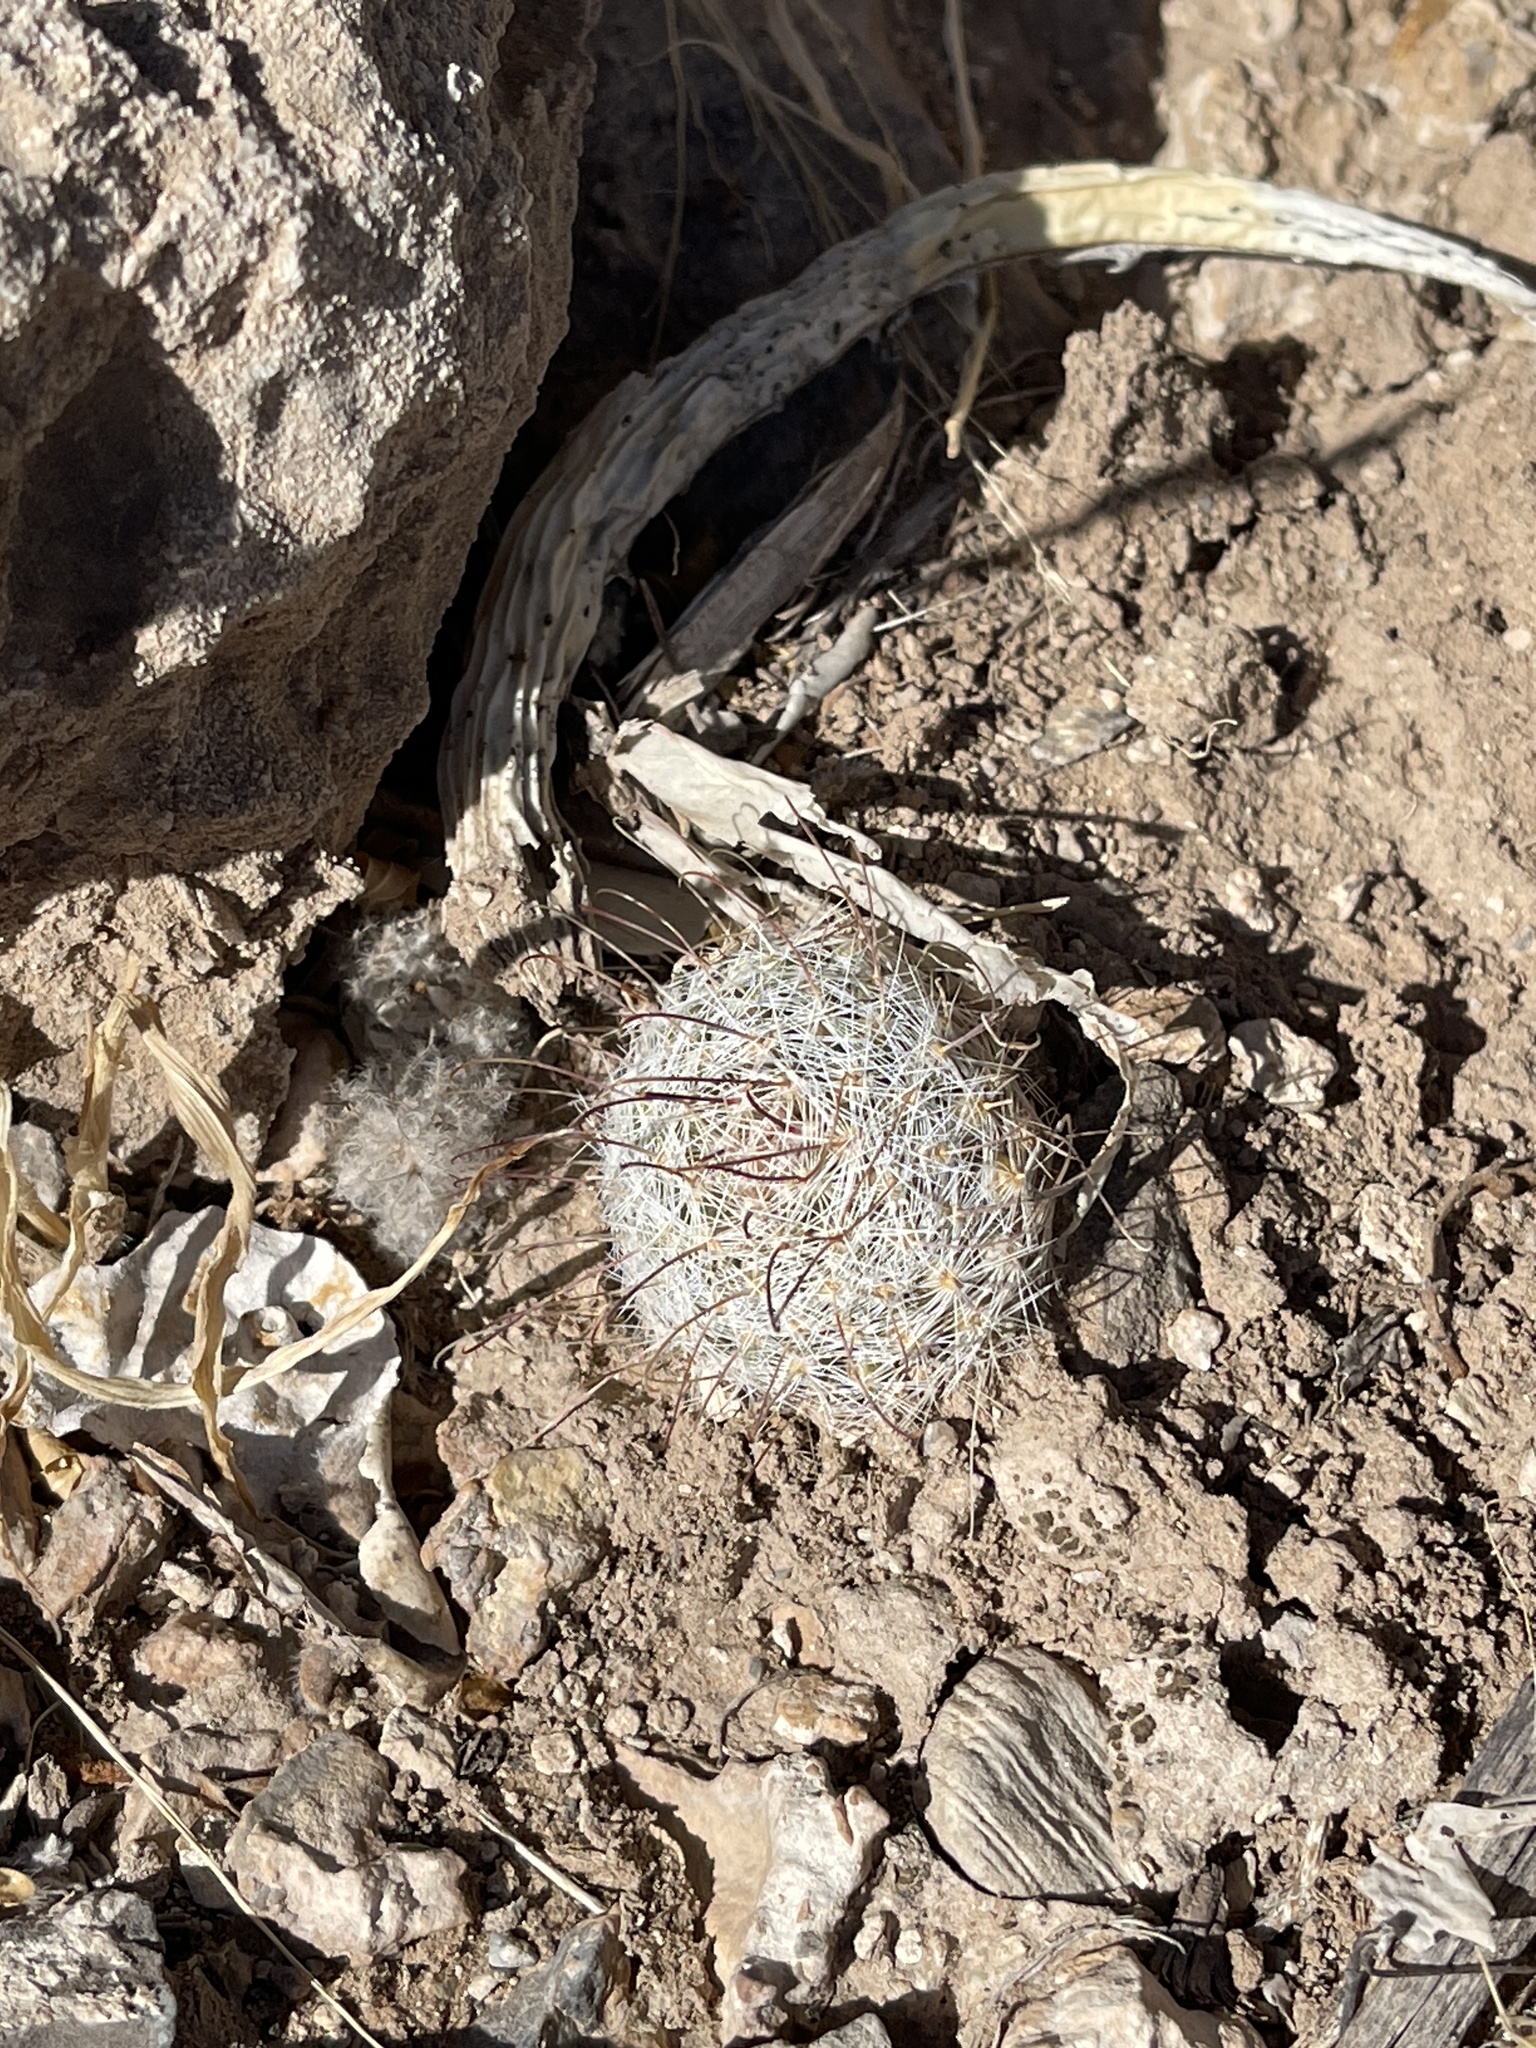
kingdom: Plantae
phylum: Tracheophyta
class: Magnoliopsida
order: Caryophyllales
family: Cactaceae
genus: Cochemiea
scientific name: Cochemiea grahamii
